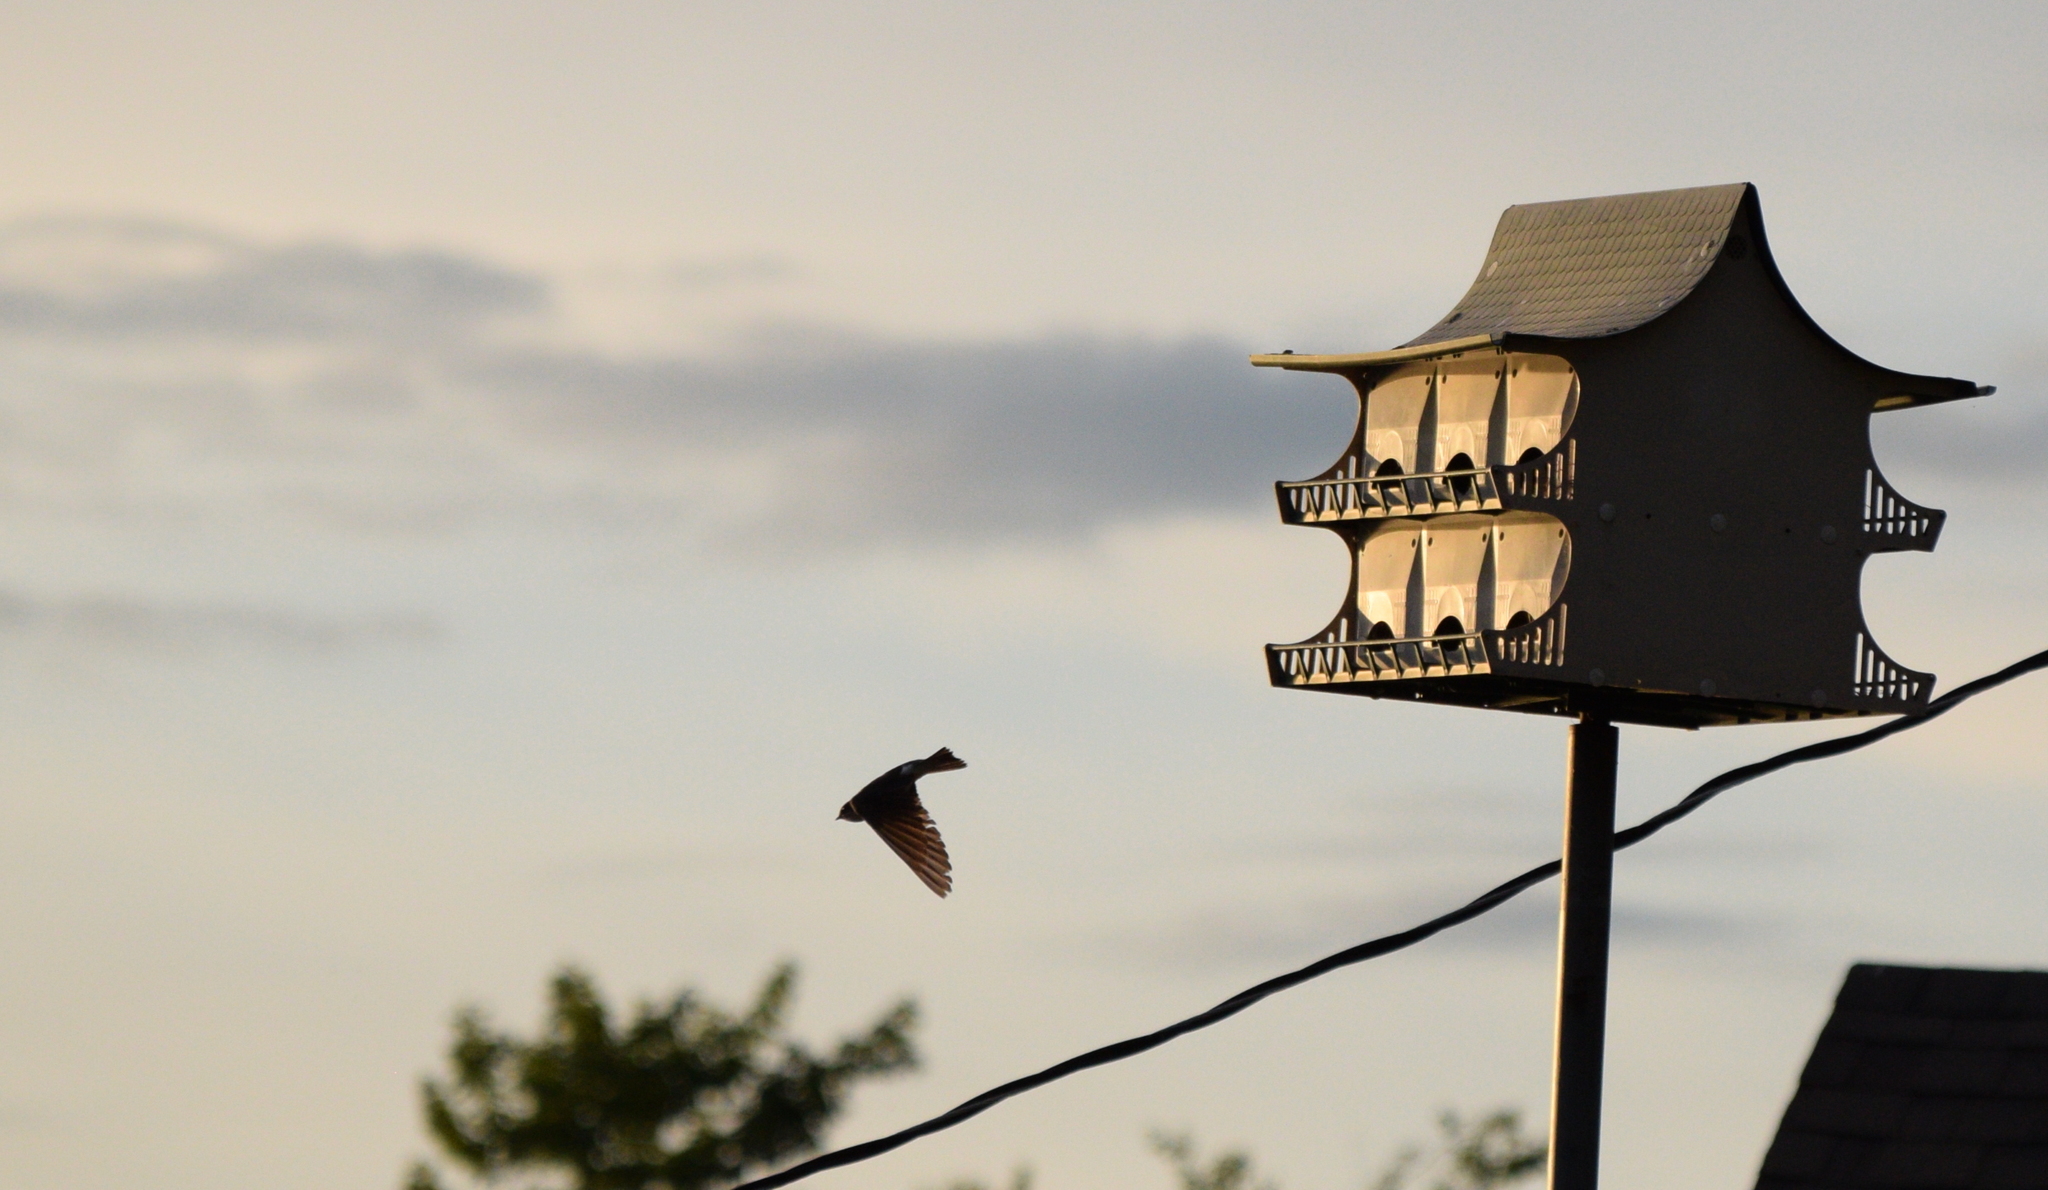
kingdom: Animalia
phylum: Chordata
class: Aves
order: Passeriformes
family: Hirundinidae
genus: Tachycineta
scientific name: Tachycineta bicolor
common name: Tree swallow
